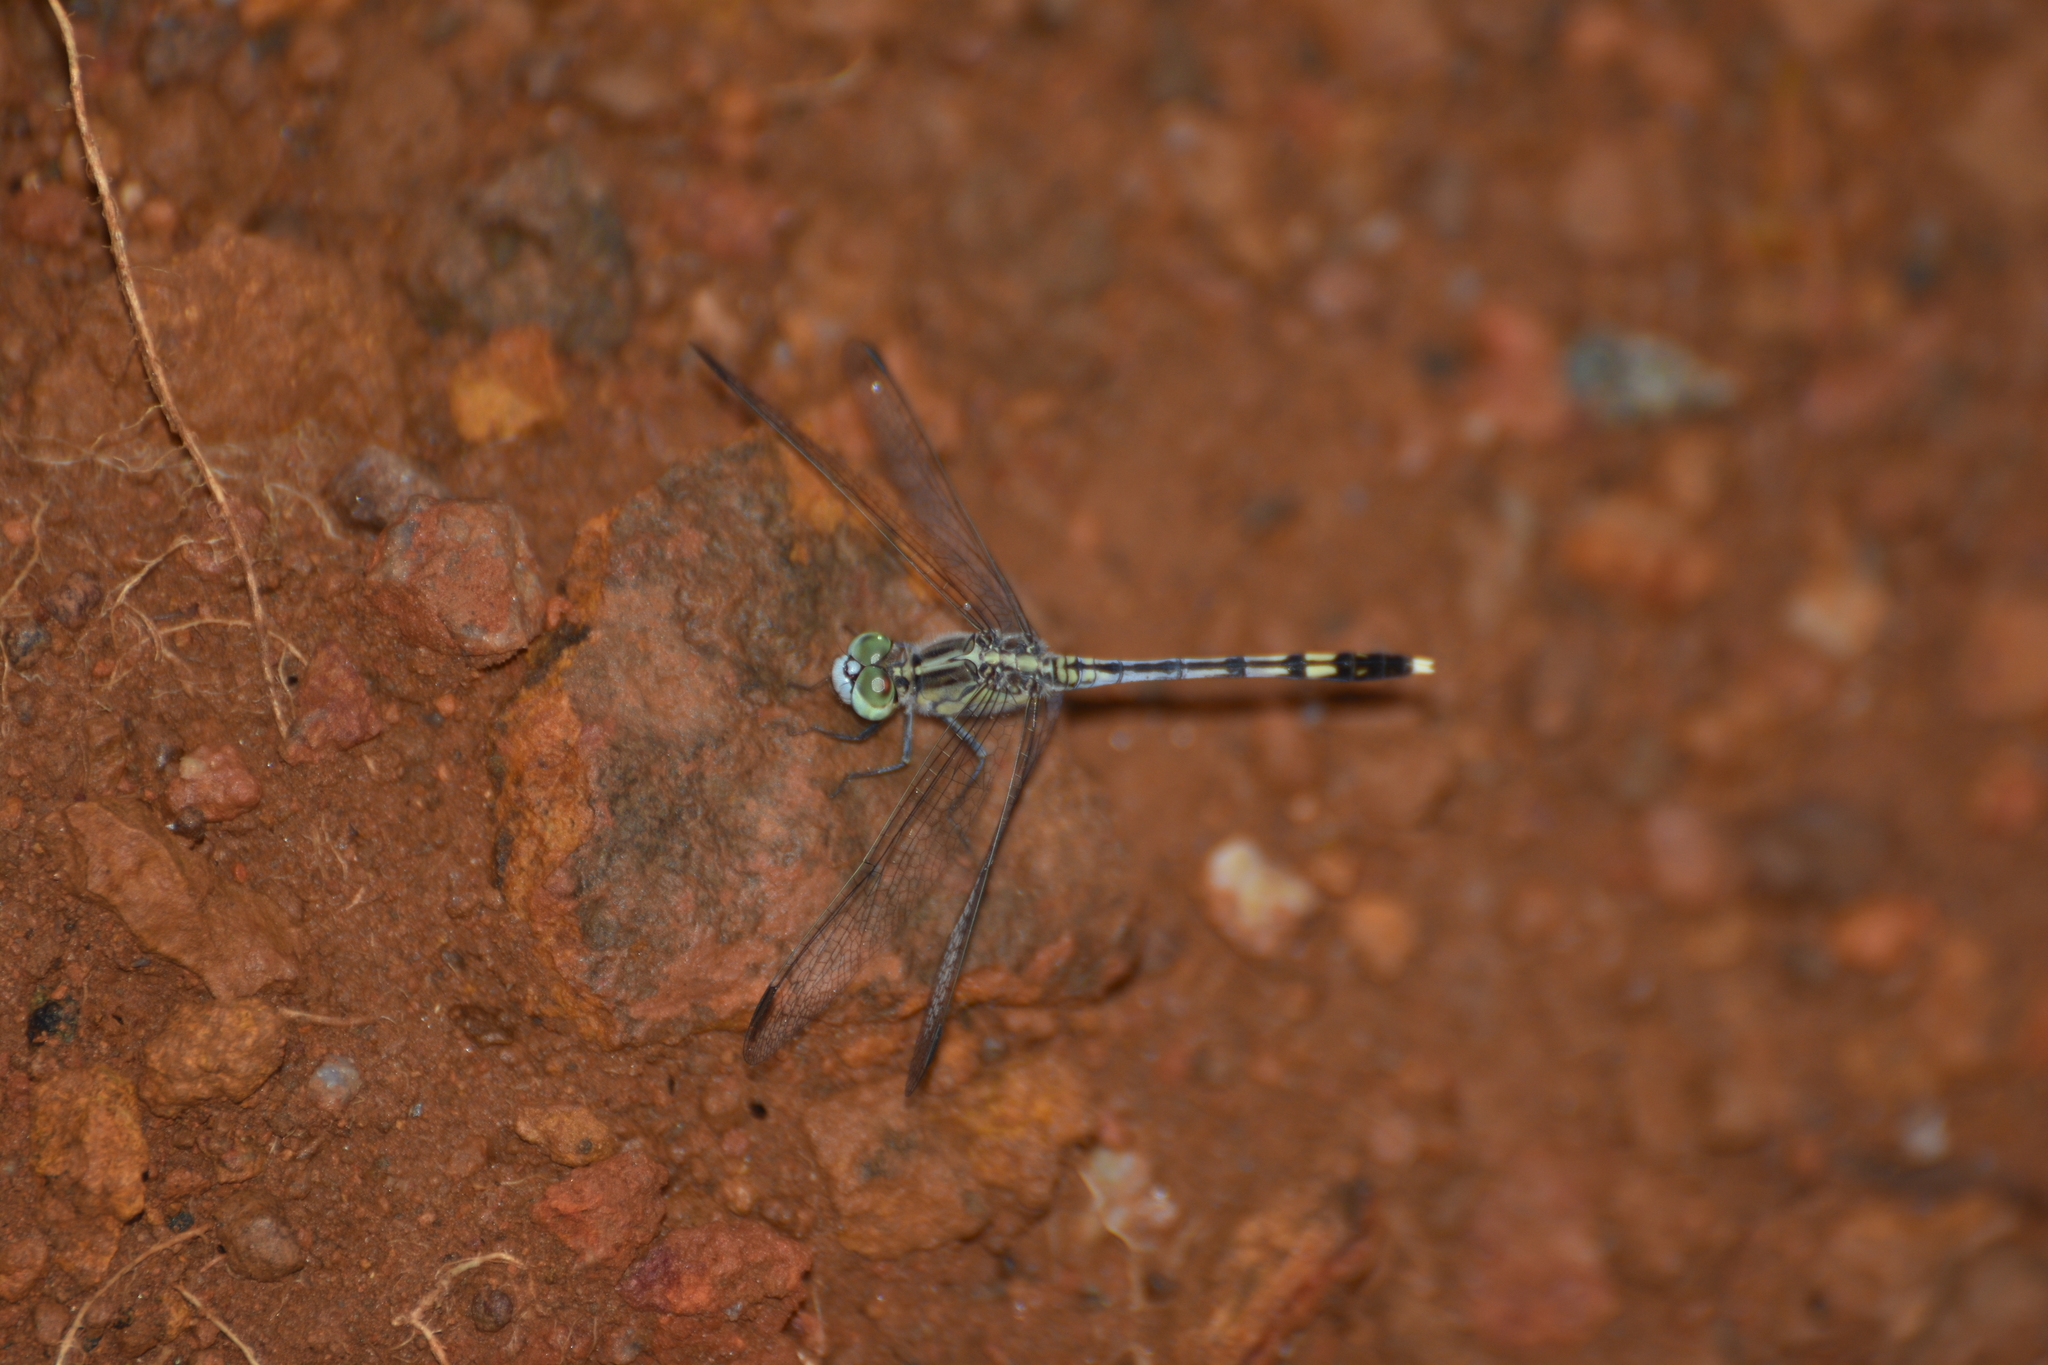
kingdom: Animalia
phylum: Arthropoda
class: Insecta
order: Odonata
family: Libellulidae
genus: Diplacodes
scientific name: Diplacodes trivialis
